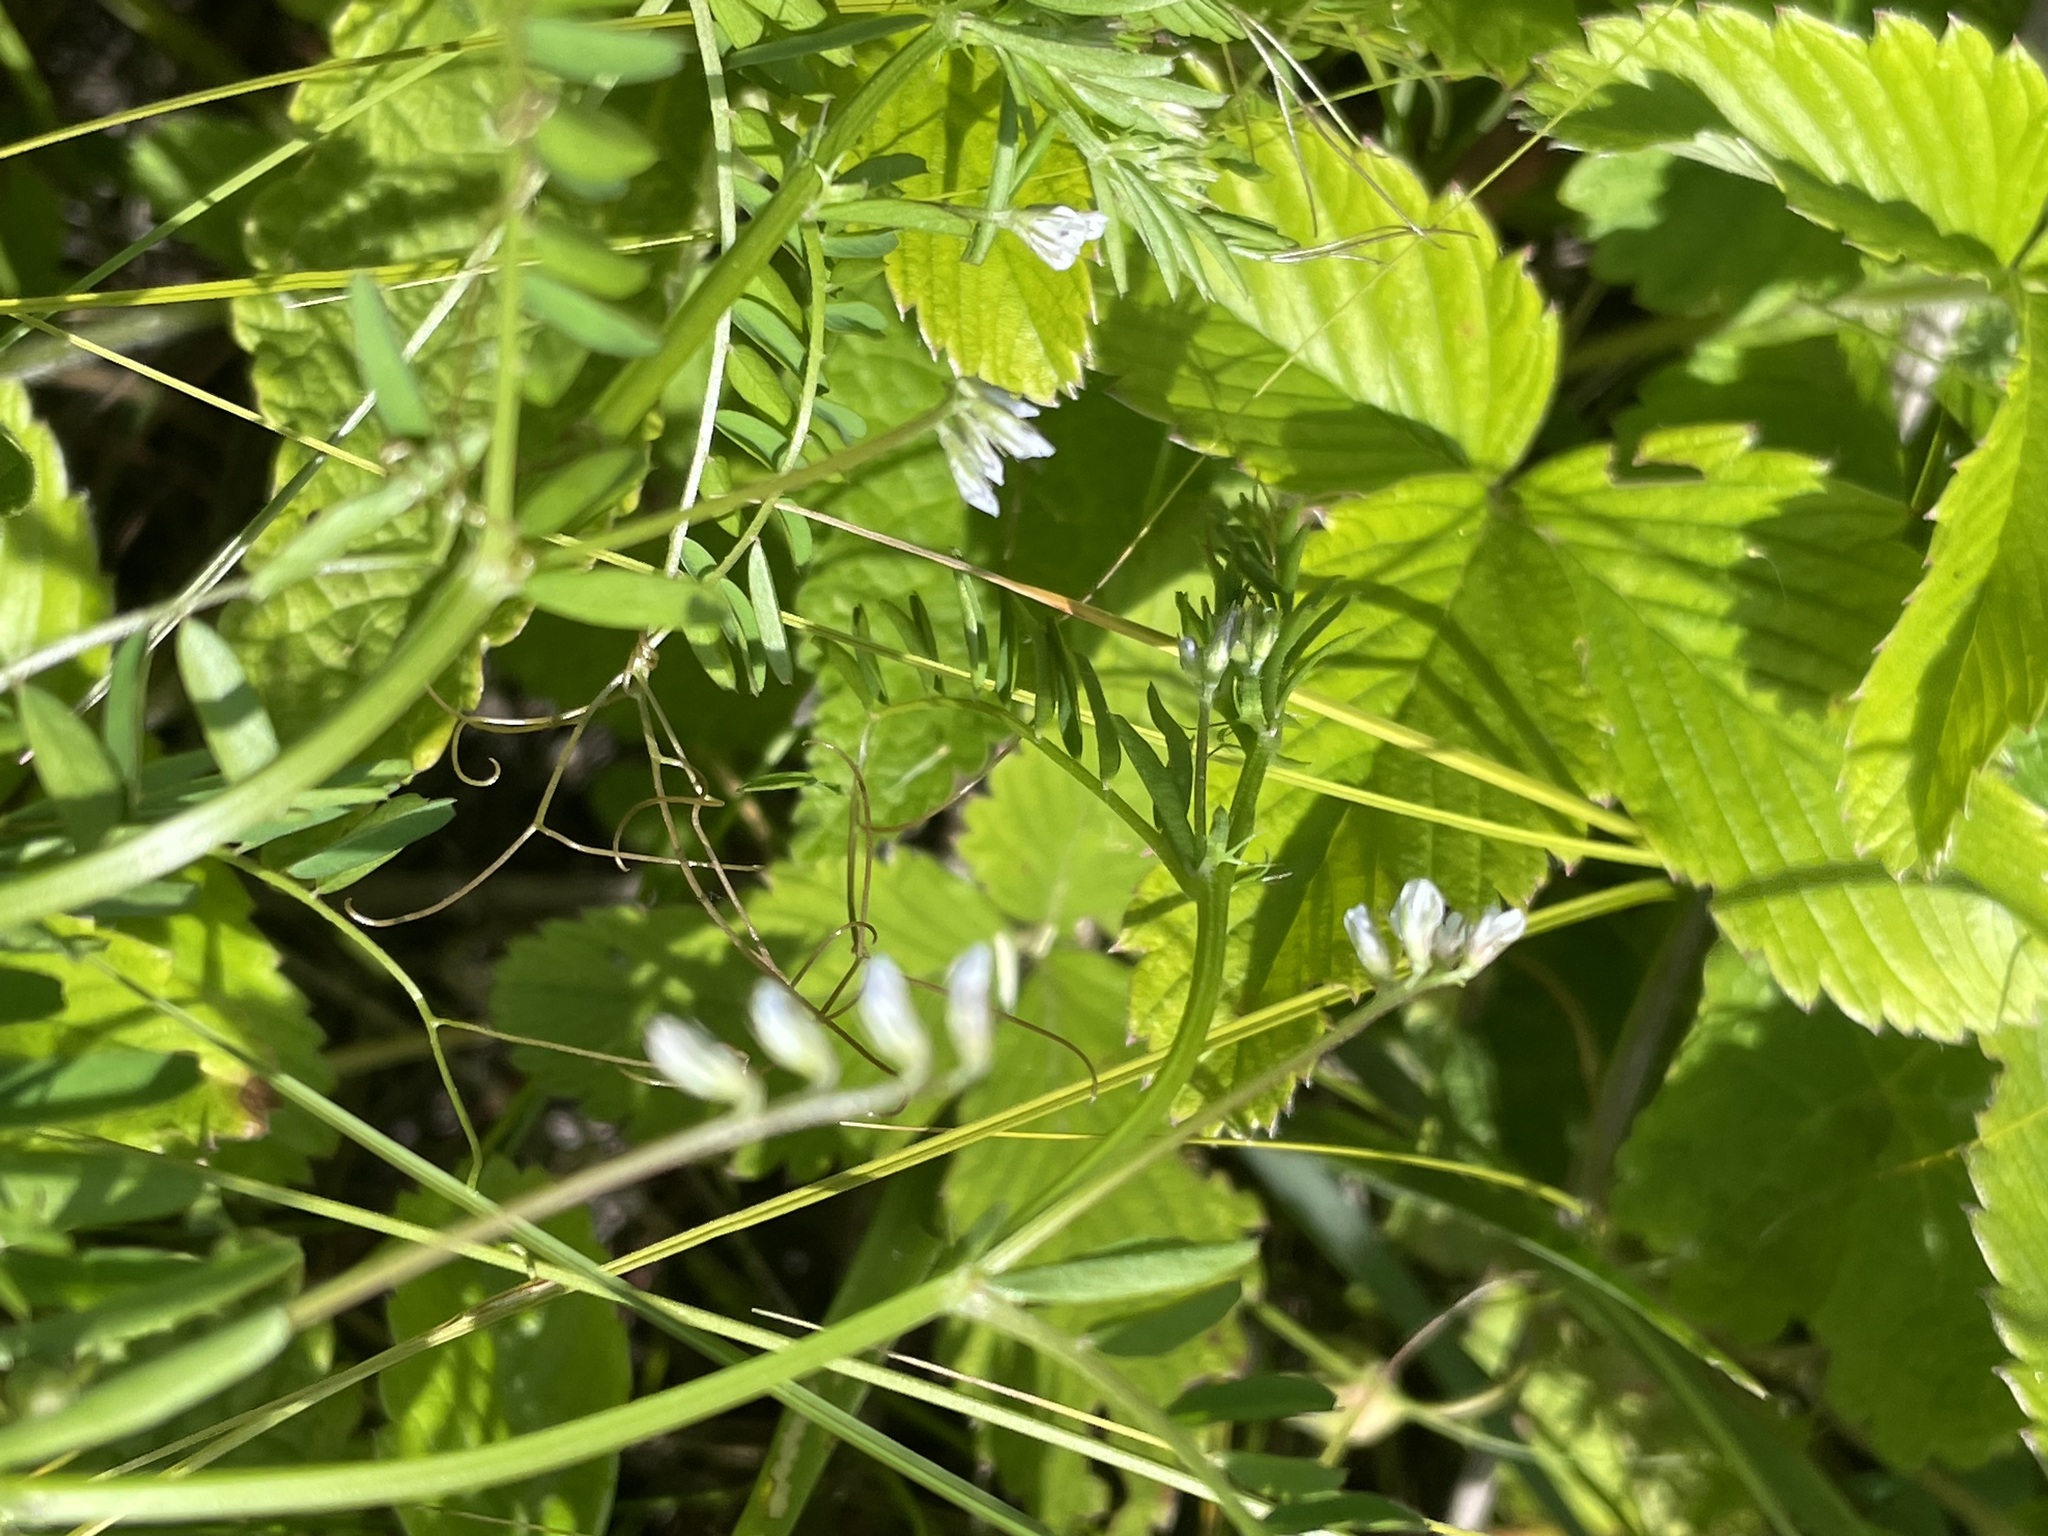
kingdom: Plantae
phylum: Tracheophyta
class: Magnoliopsida
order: Fabales
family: Fabaceae
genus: Vicia
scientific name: Vicia hirsuta
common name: Tiny vetch
